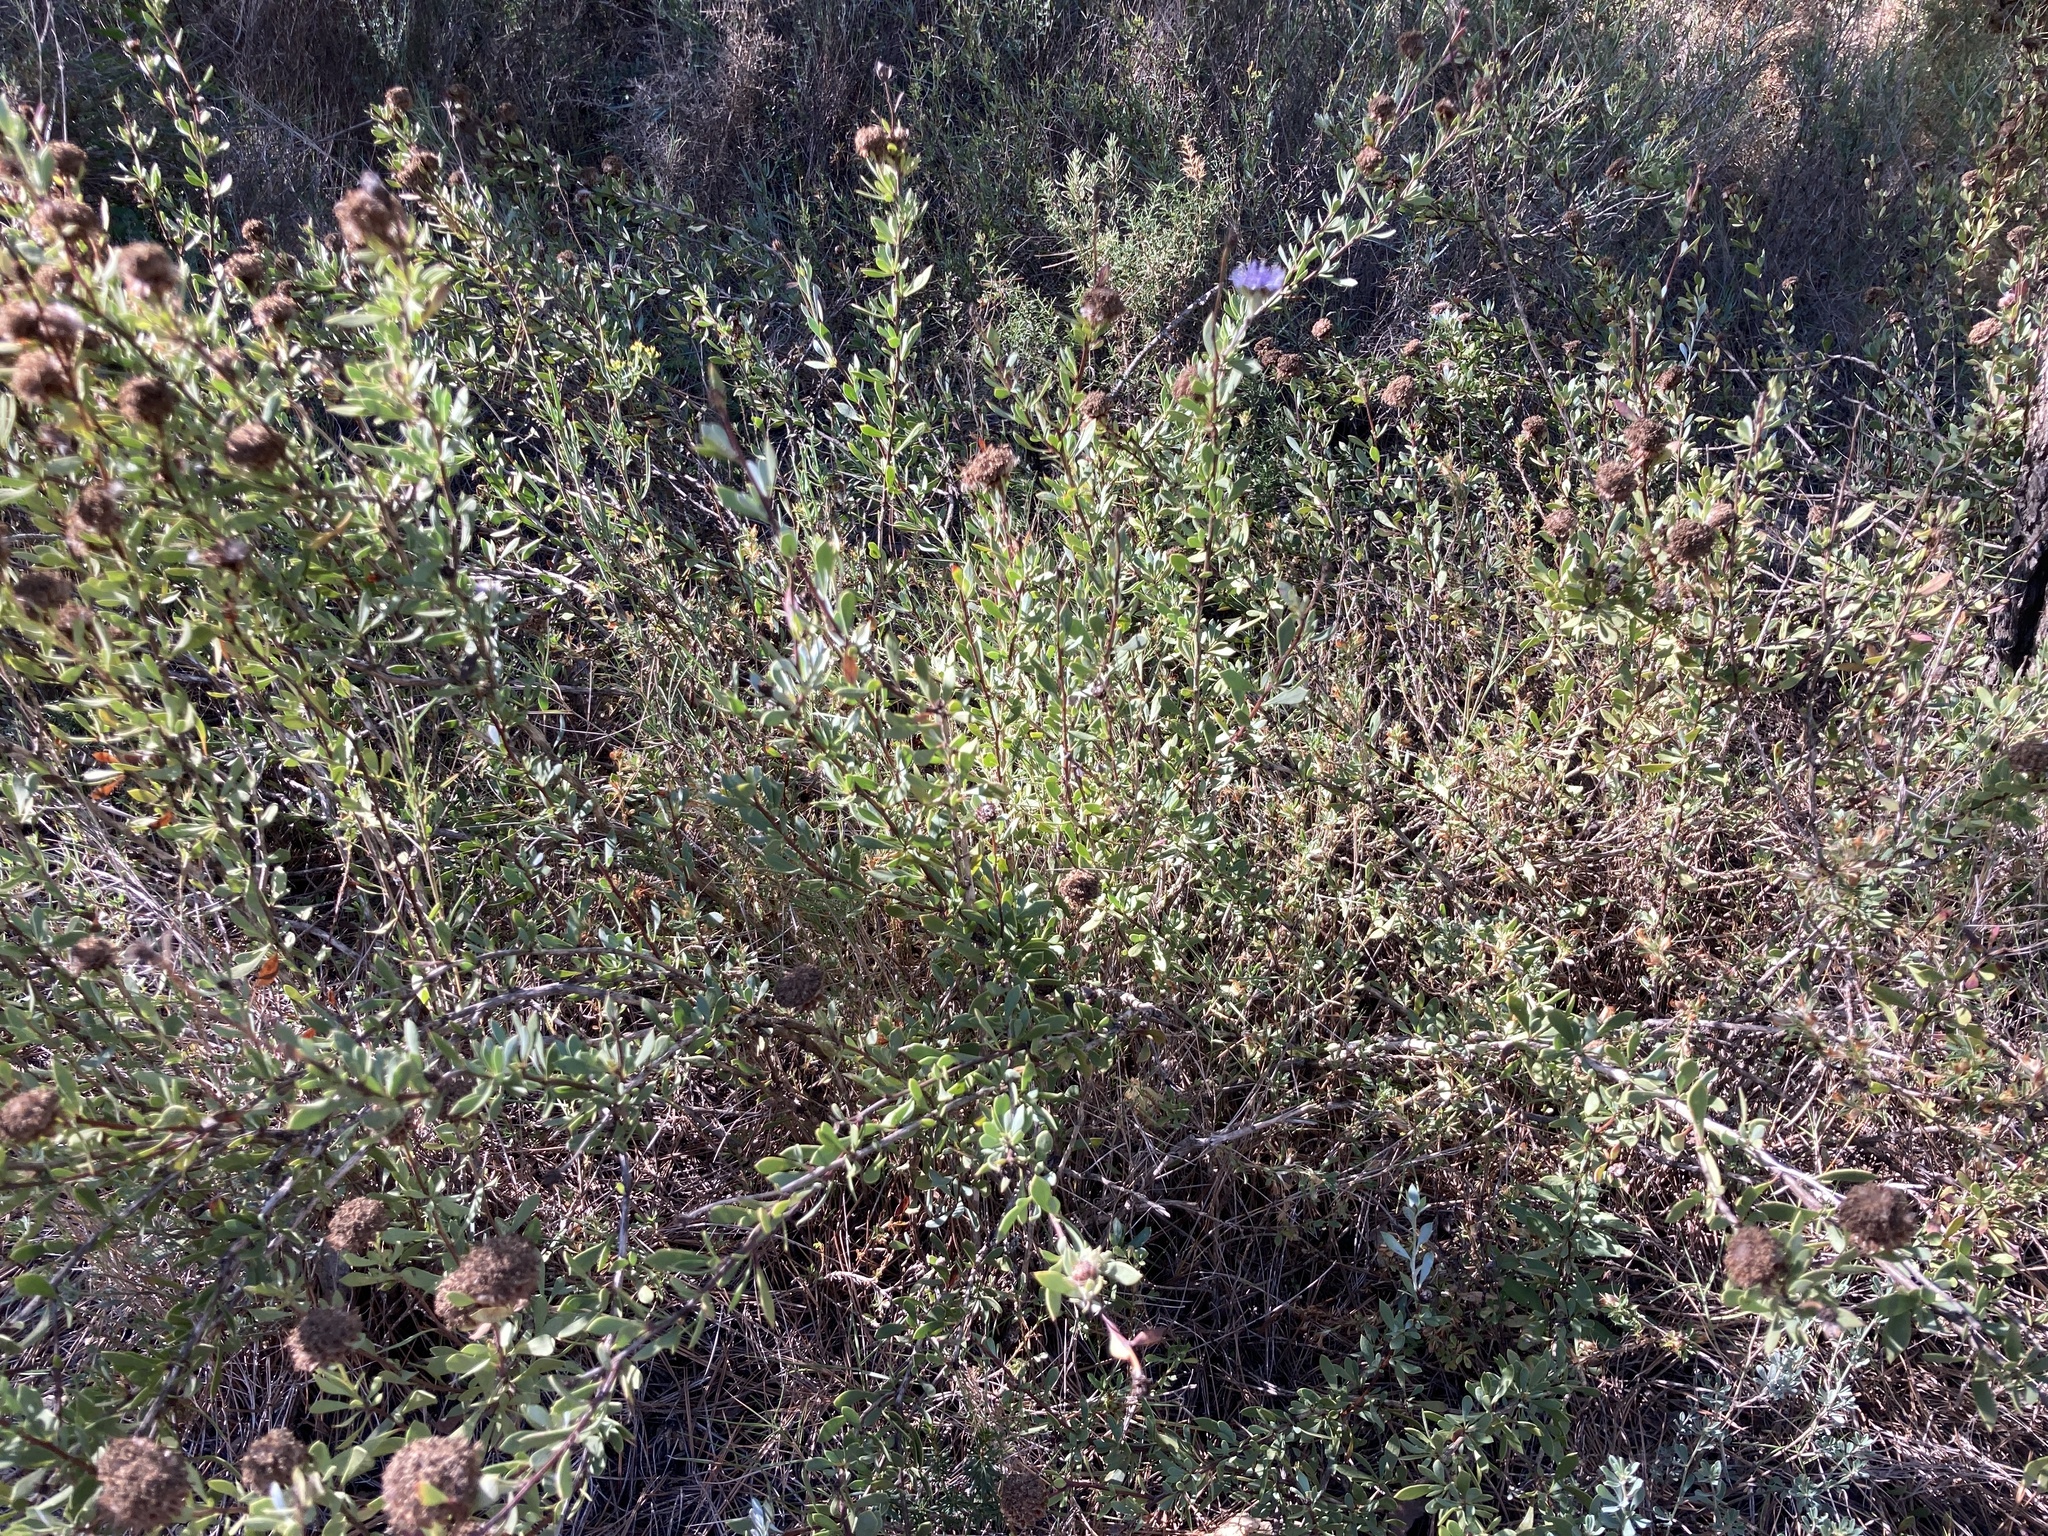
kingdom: Plantae
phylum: Tracheophyta
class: Magnoliopsida
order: Lamiales
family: Plantaginaceae
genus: Globularia
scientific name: Globularia alypum
